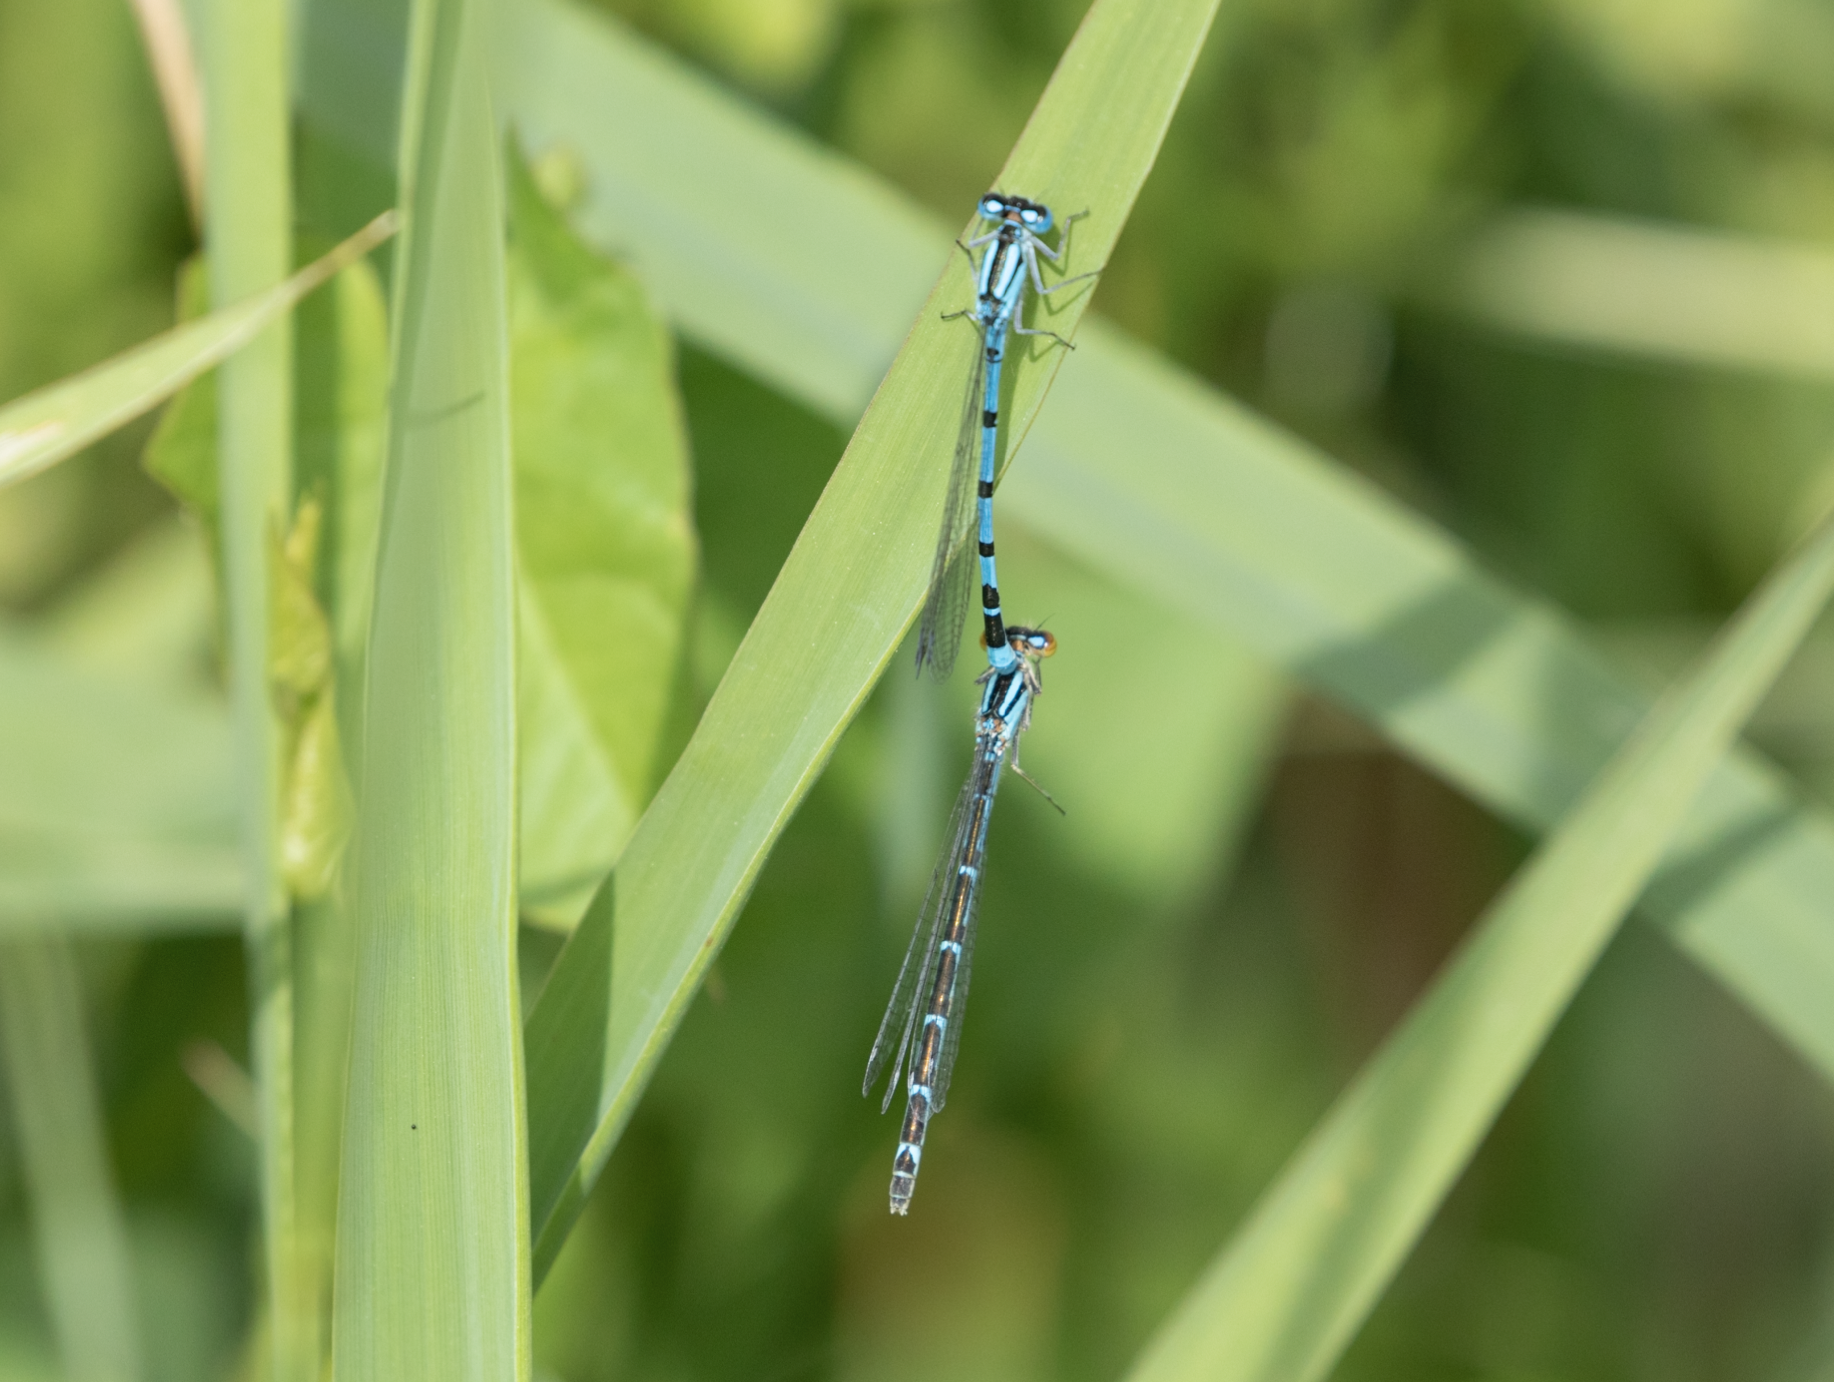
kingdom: Animalia
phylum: Arthropoda
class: Insecta
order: Odonata
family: Coenagrionidae
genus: Enallagma
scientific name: Enallagma cyathigerum
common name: Common blue damselfly
